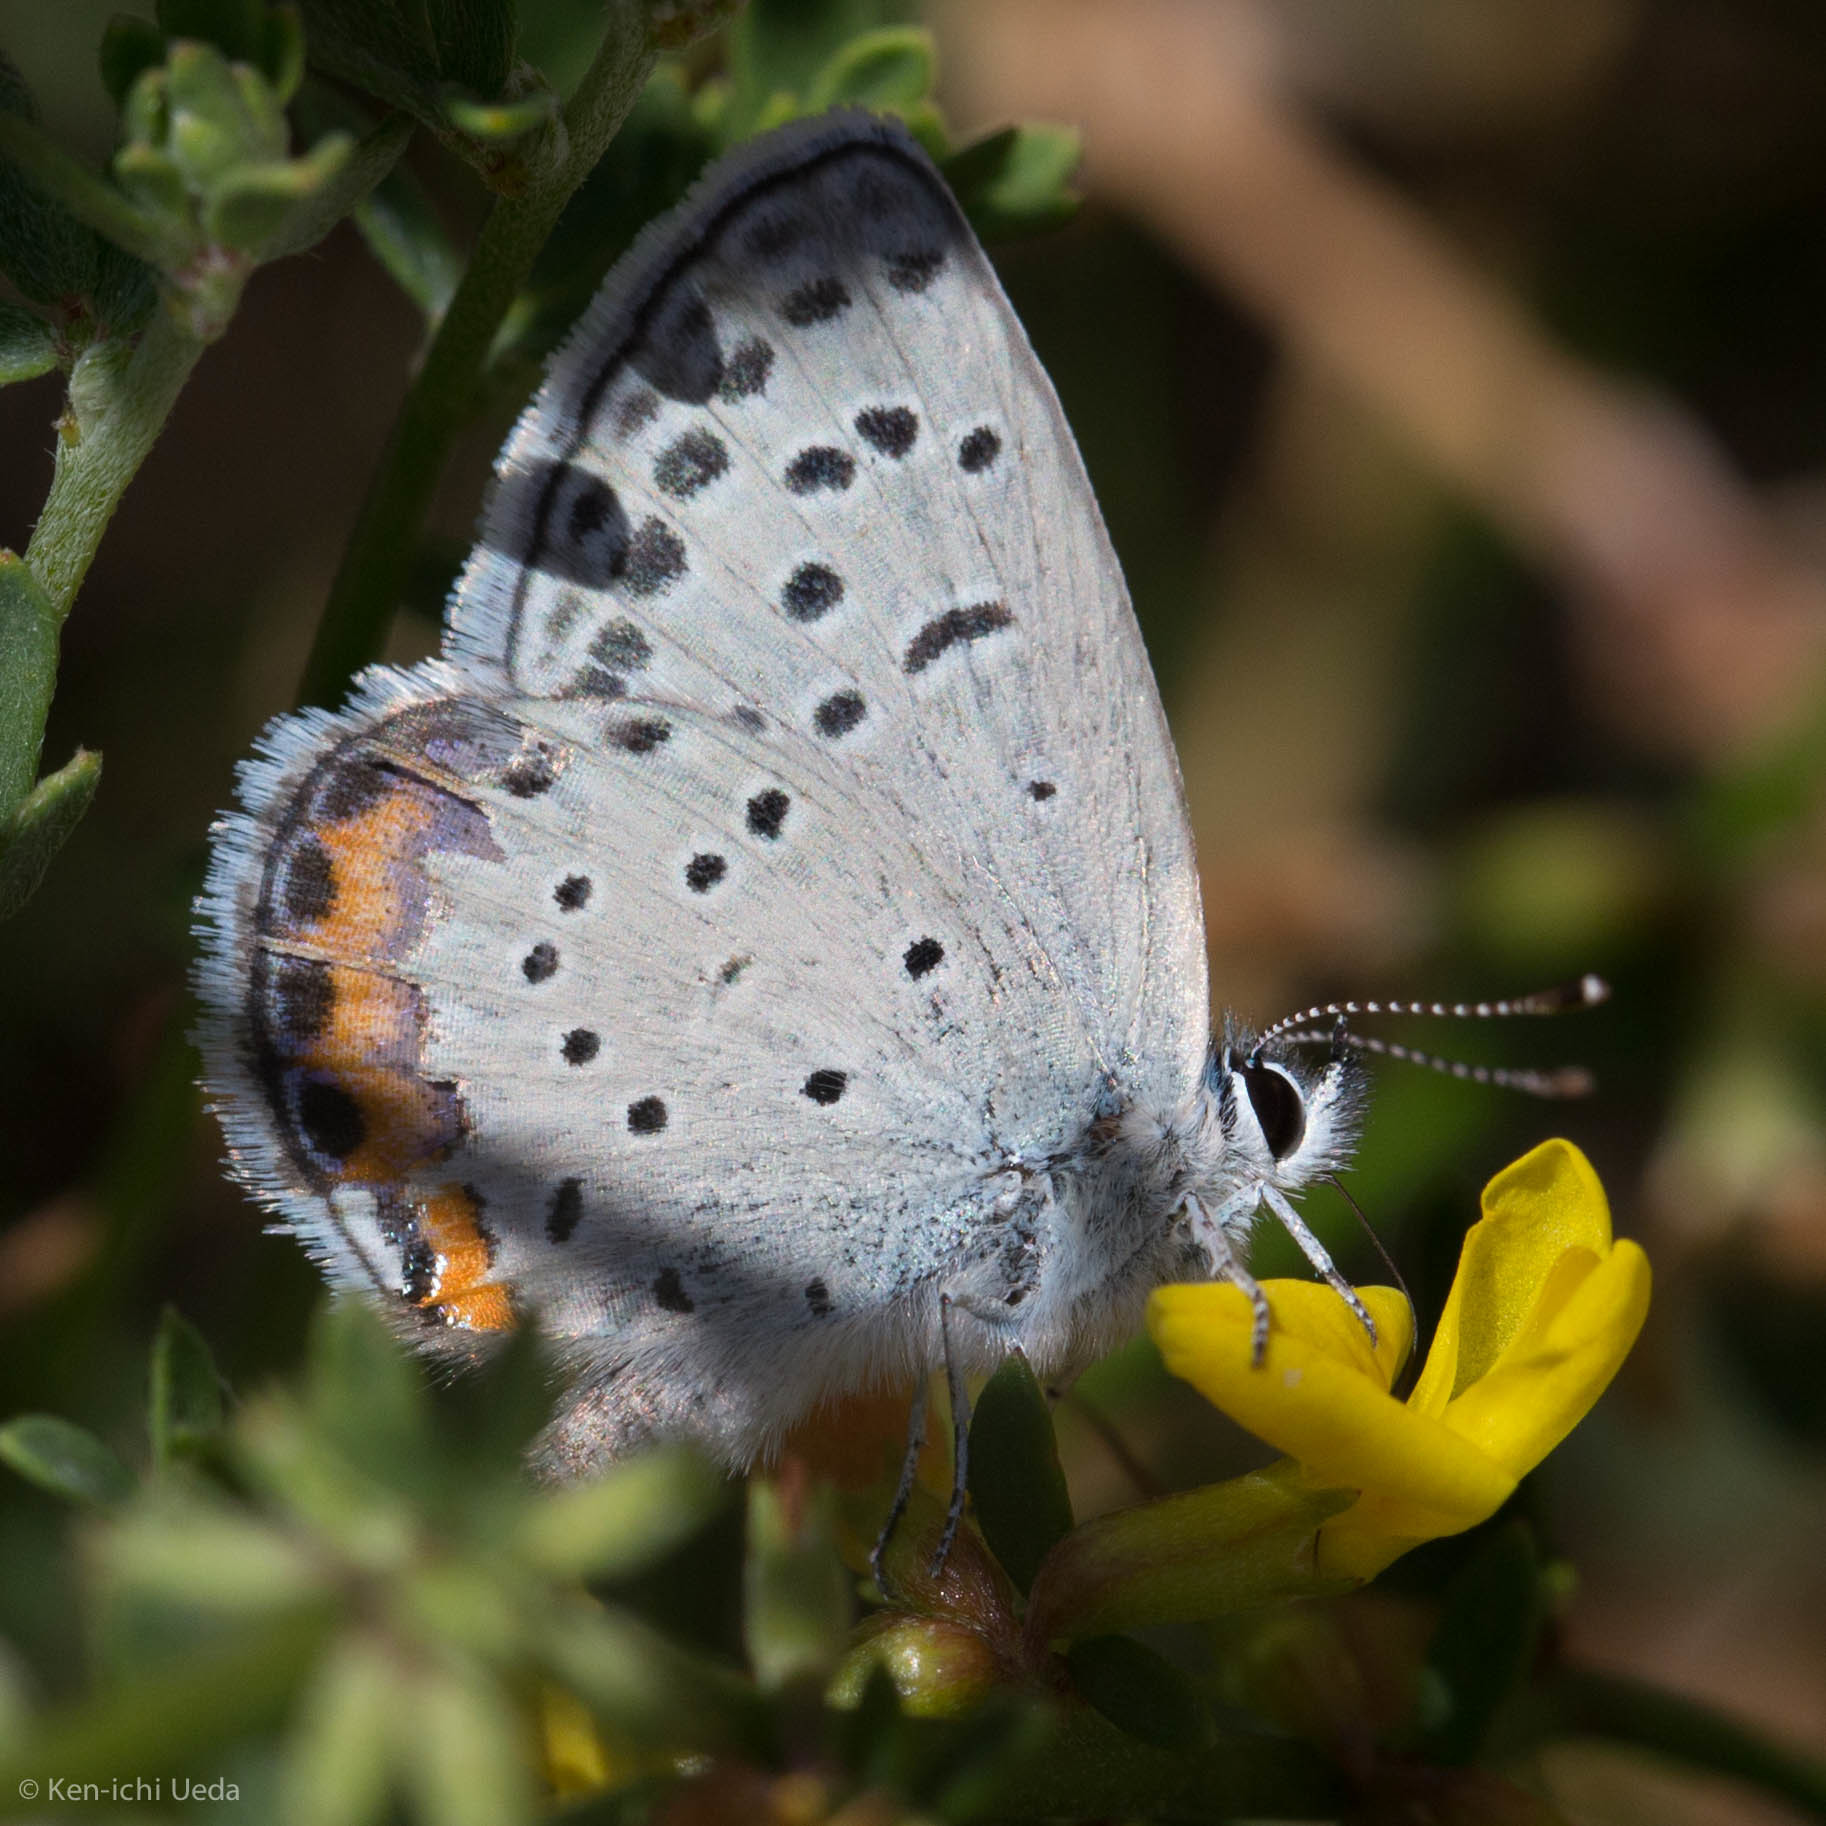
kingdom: Animalia
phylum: Arthropoda
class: Insecta
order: Lepidoptera
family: Lycaenidae
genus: Icaricia
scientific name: Icaricia acmon
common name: Acmon blue
